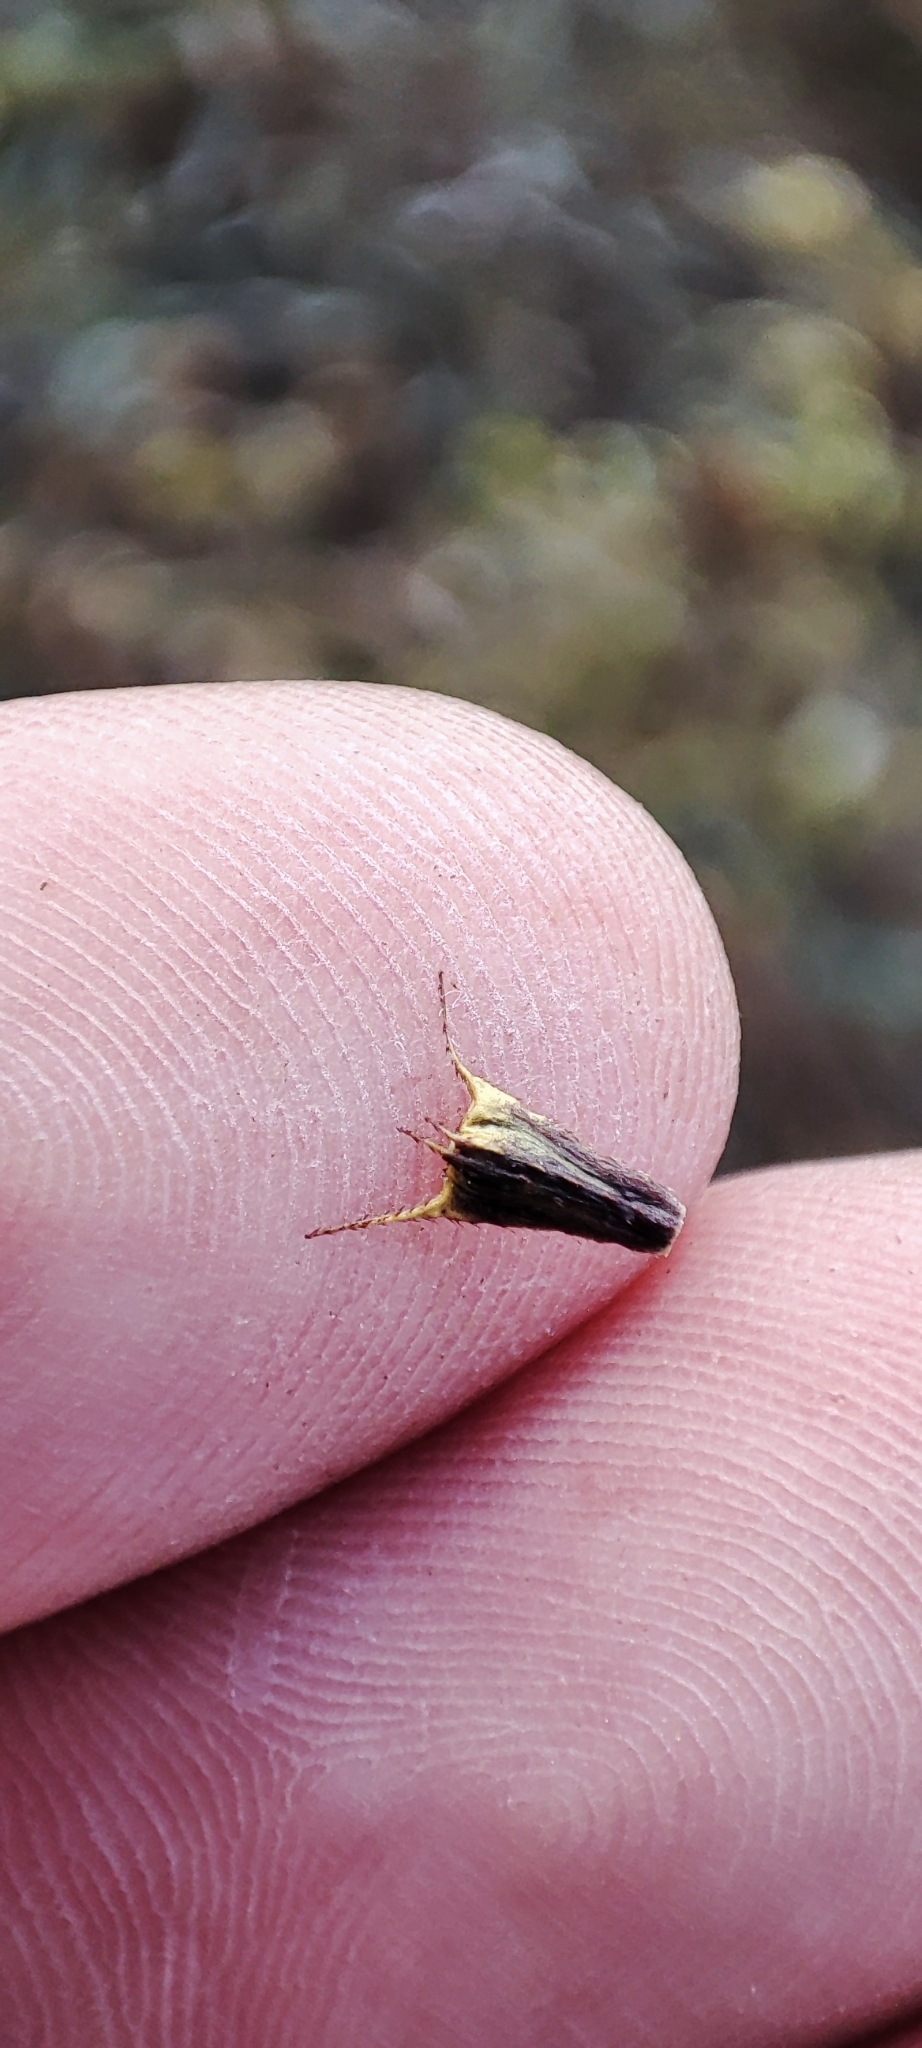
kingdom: Plantae
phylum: Tracheophyta
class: Magnoliopsida
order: Asterales
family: Asteraceae
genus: Bidens
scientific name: Bidens cernua
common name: Nodding bur-marigold
